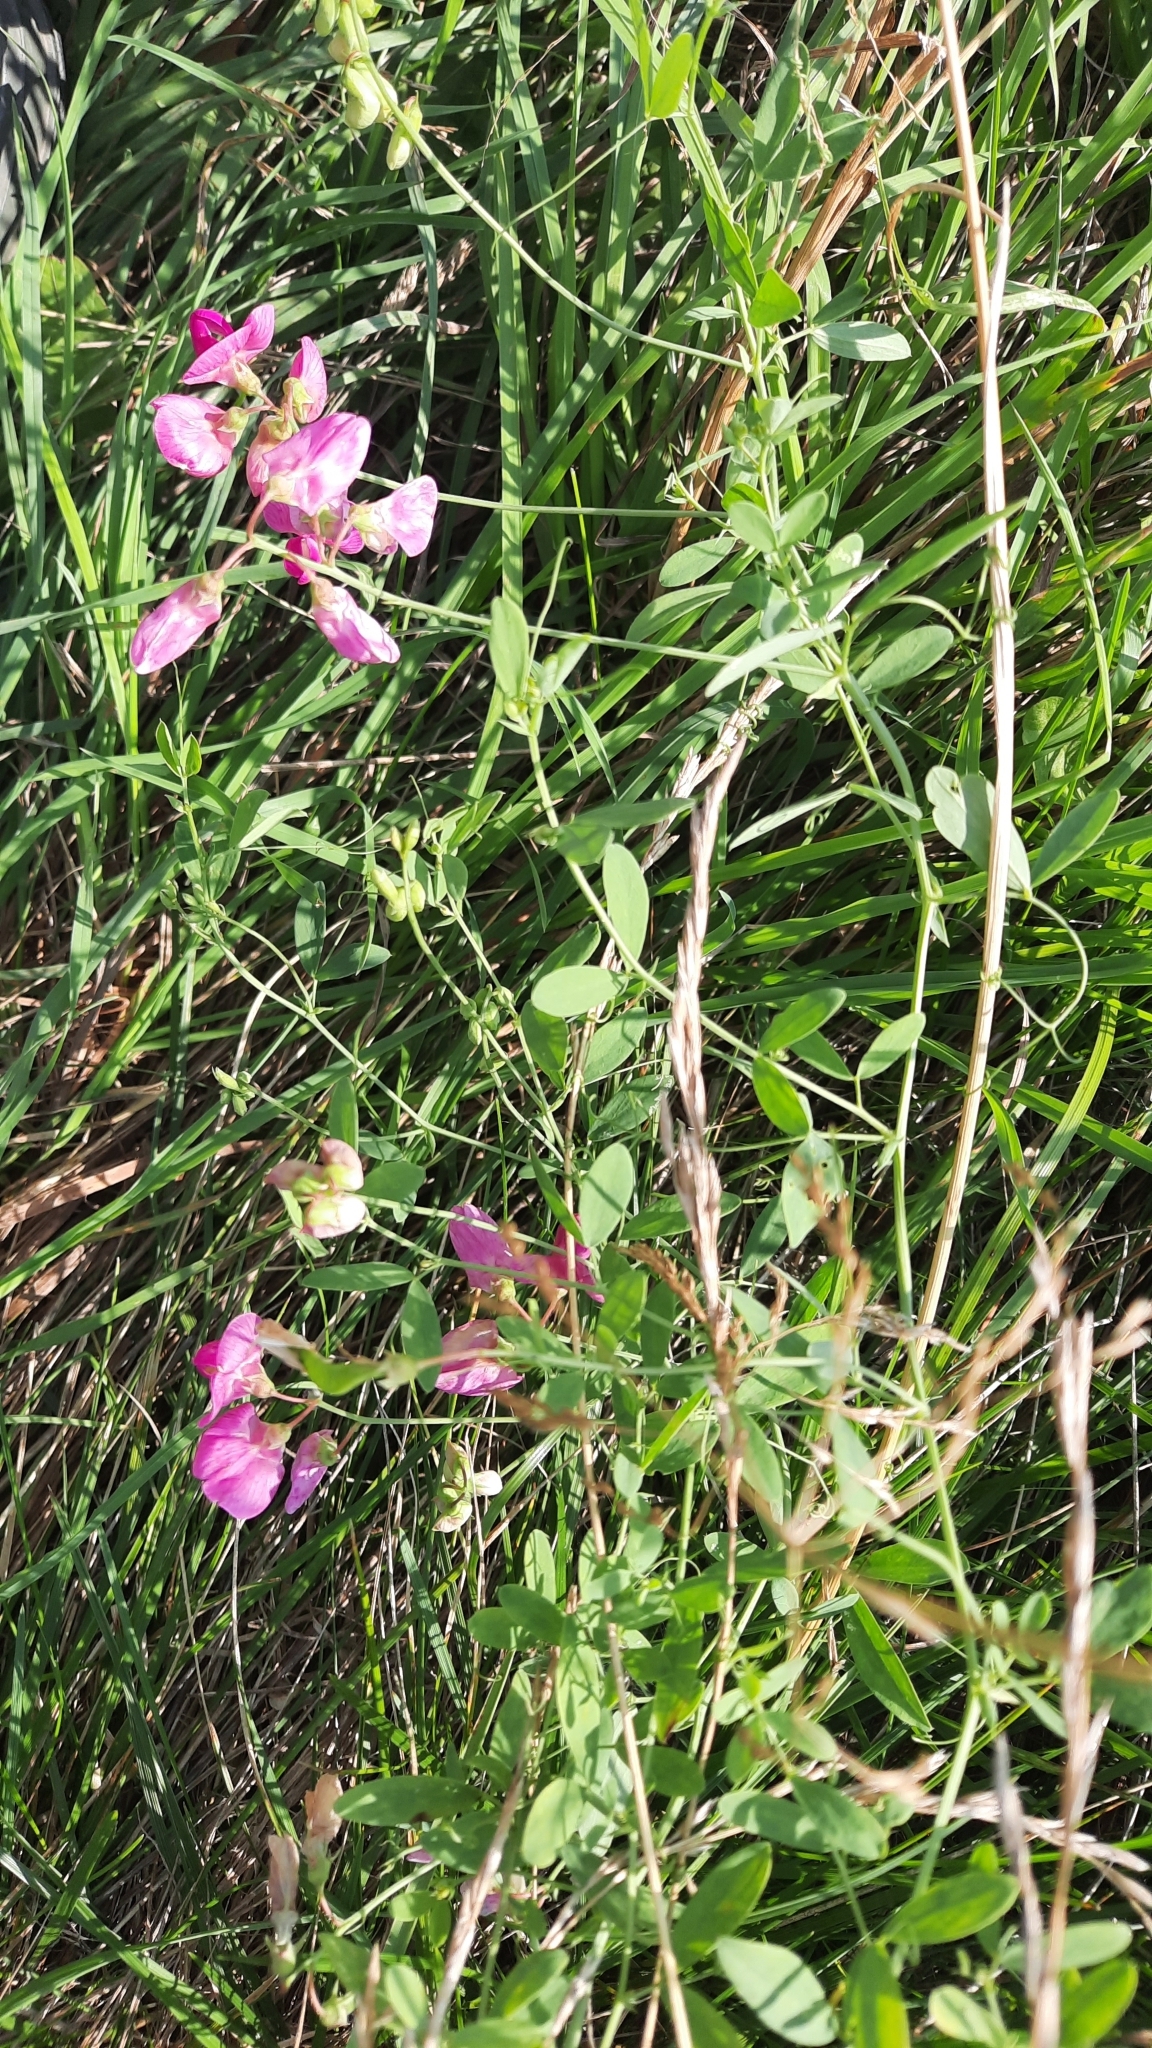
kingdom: Plantae
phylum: Tracheophyta
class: Magnoliopsida
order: Fabales
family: Fabaceae
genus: Lathyrus
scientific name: Lathyrus tuberosus
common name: Tuberous pea
